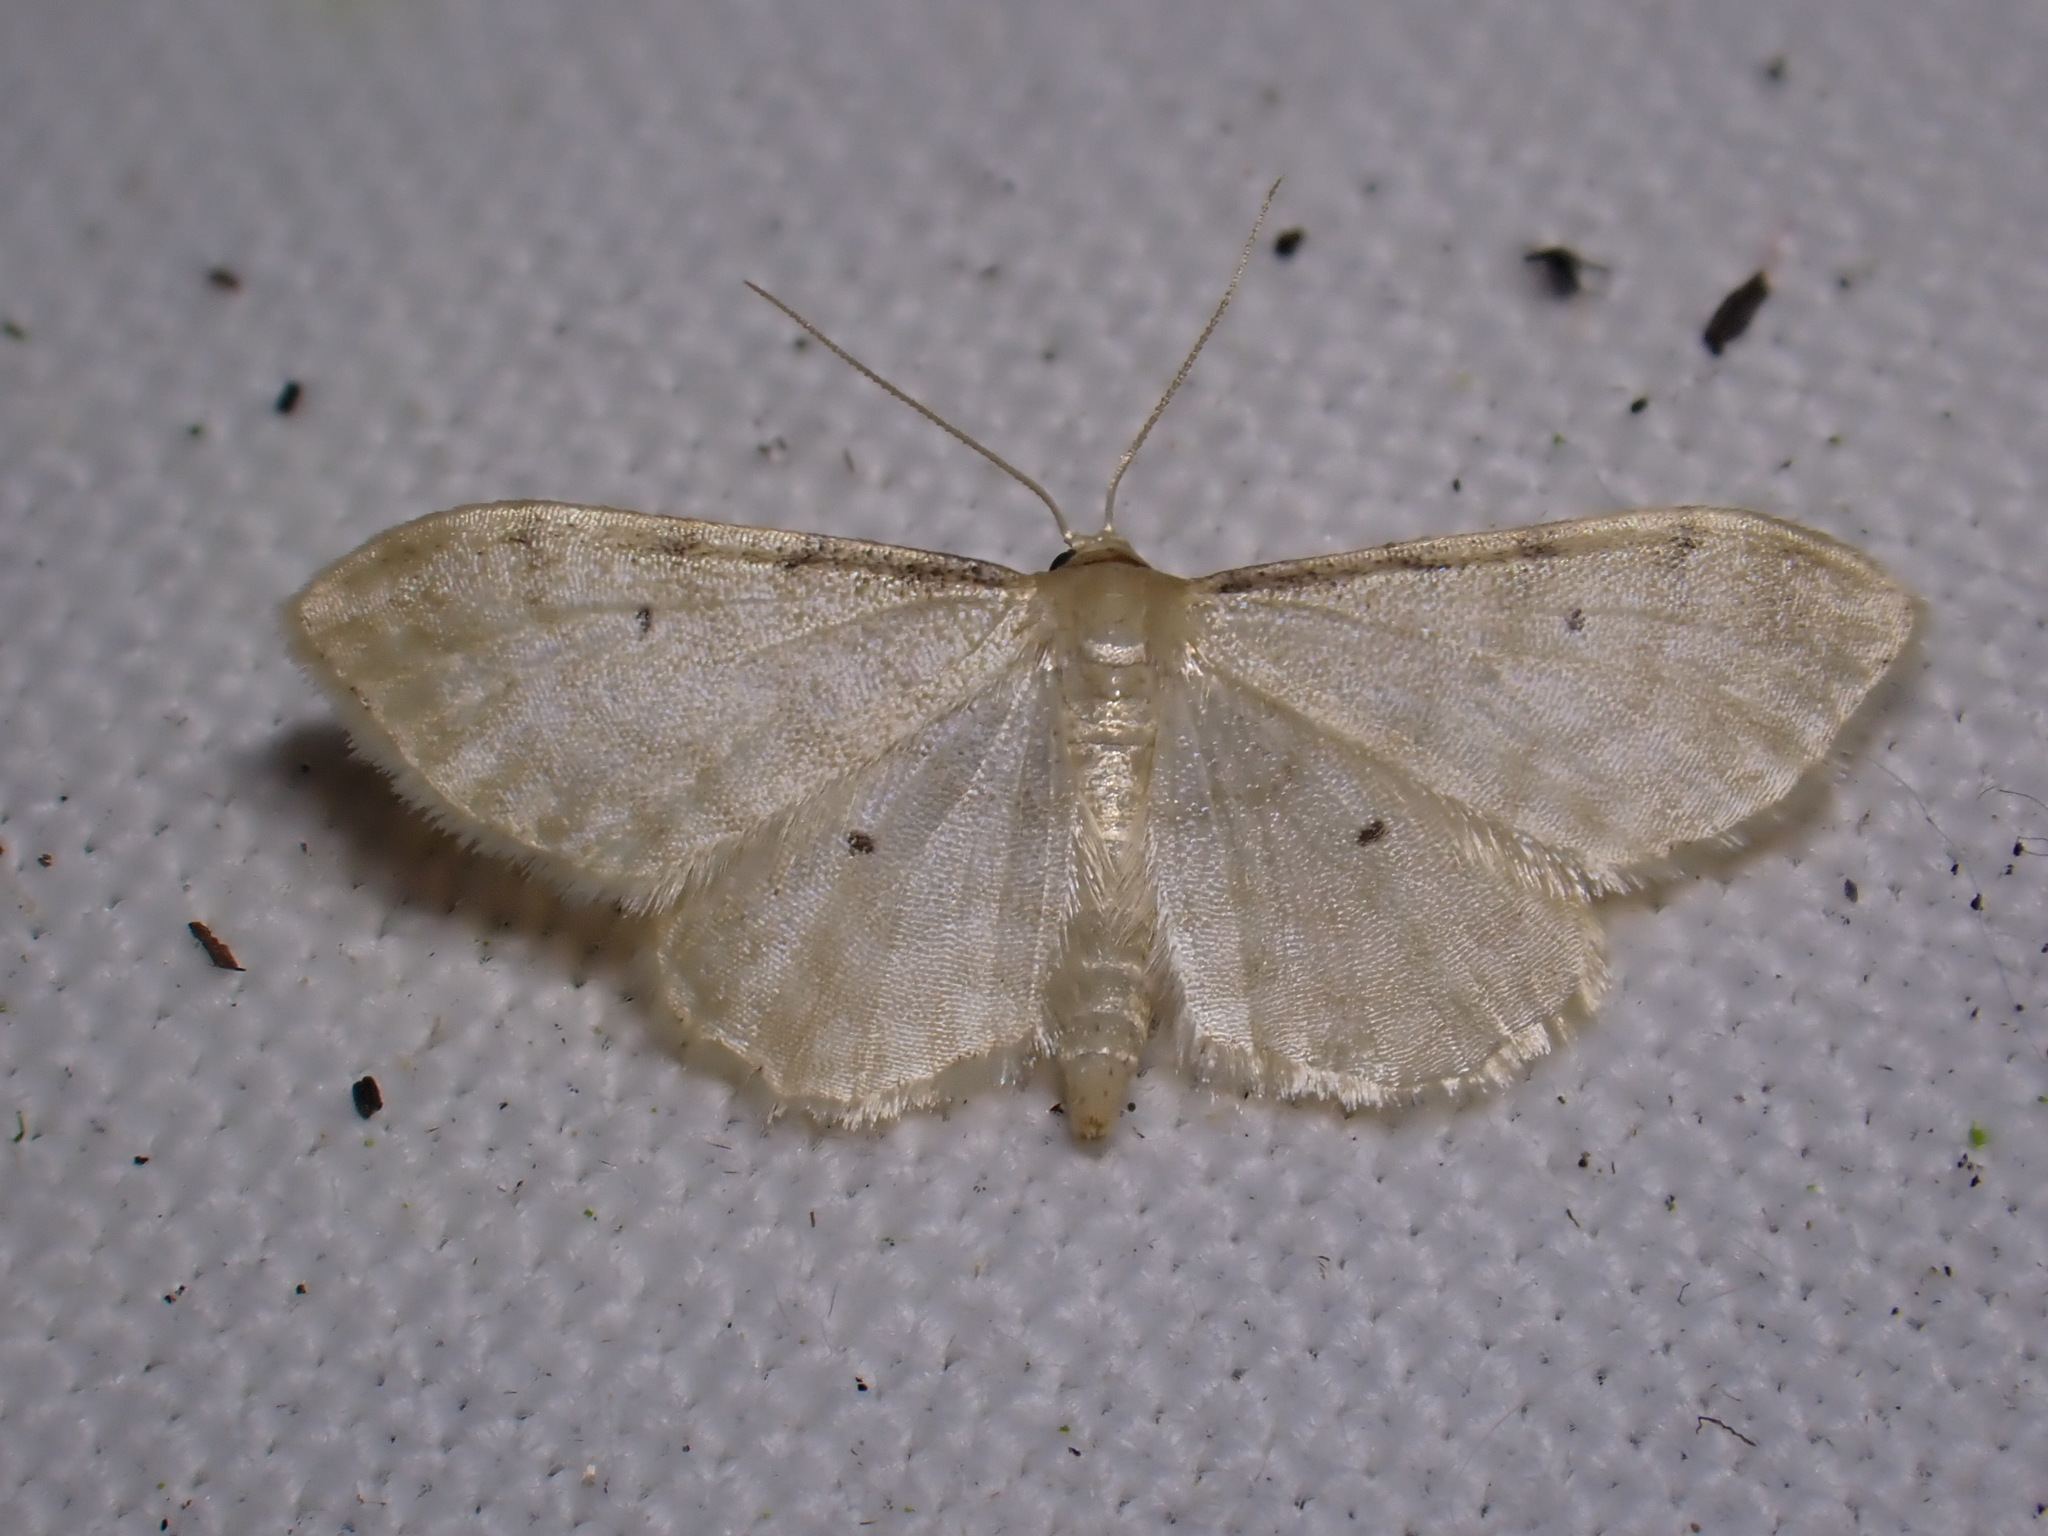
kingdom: Animalia
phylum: Arthropoda
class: Insecta
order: Lepidoptera
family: Geometridae
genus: Idaea
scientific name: Idaea fuscovenosa
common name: Dwarf cream wave
